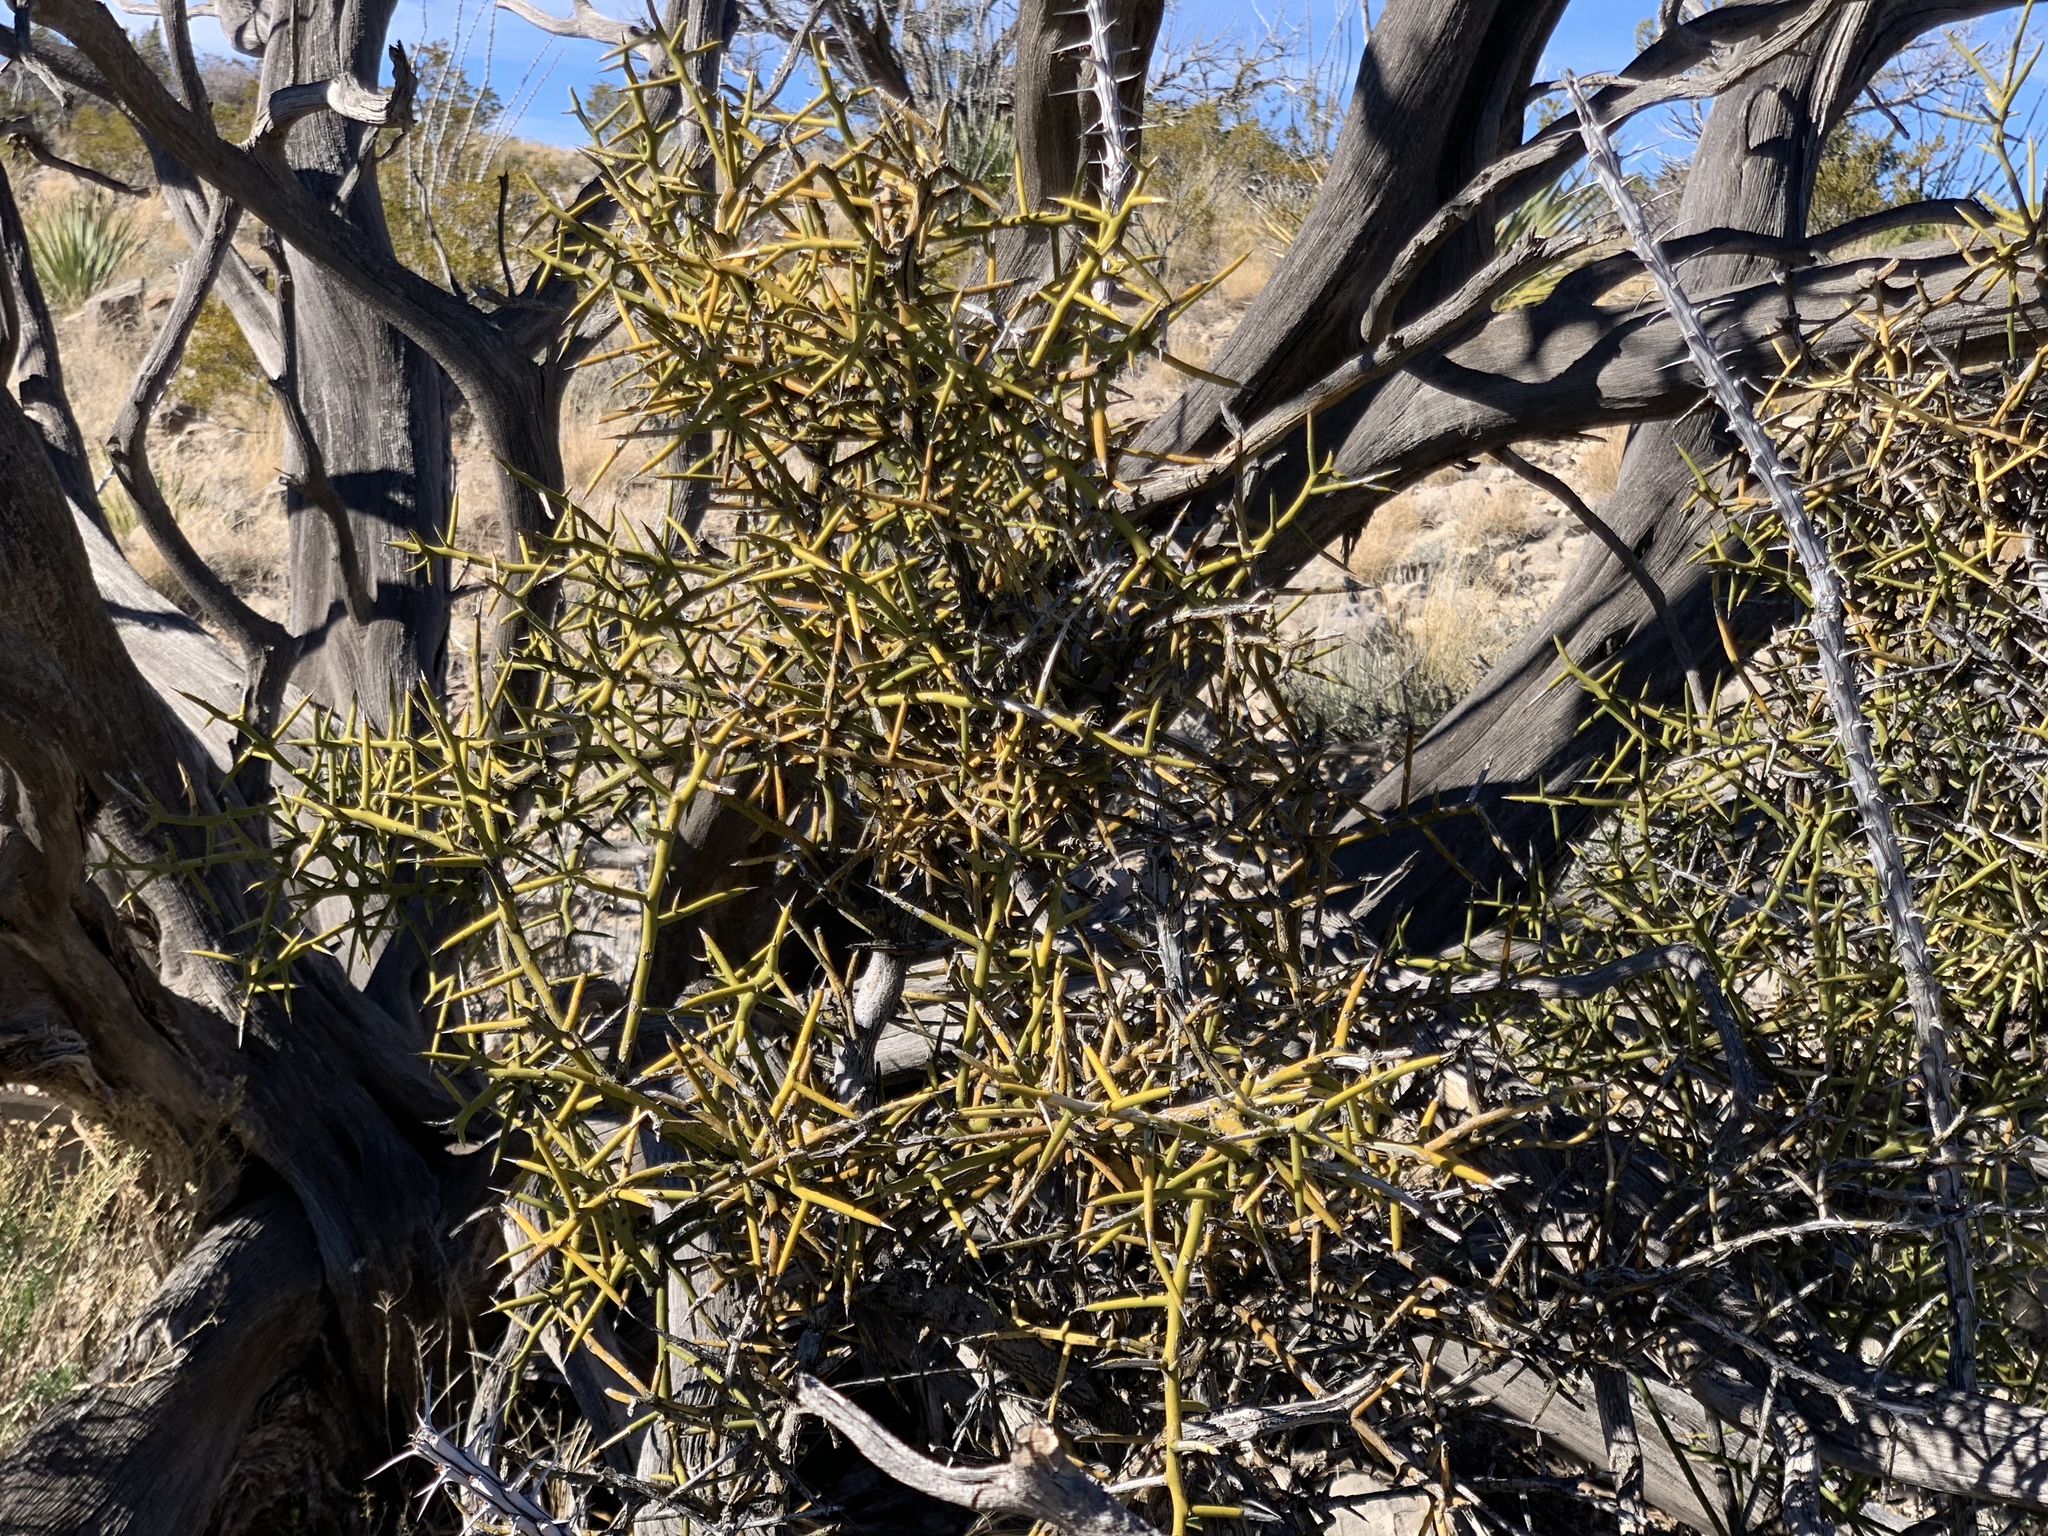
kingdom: Plantae
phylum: Tracheophyta
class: Magnoliopsida
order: Brassicales
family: Koeberliniaceae
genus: Koeberlinia
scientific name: Koeberlinia spinosa
